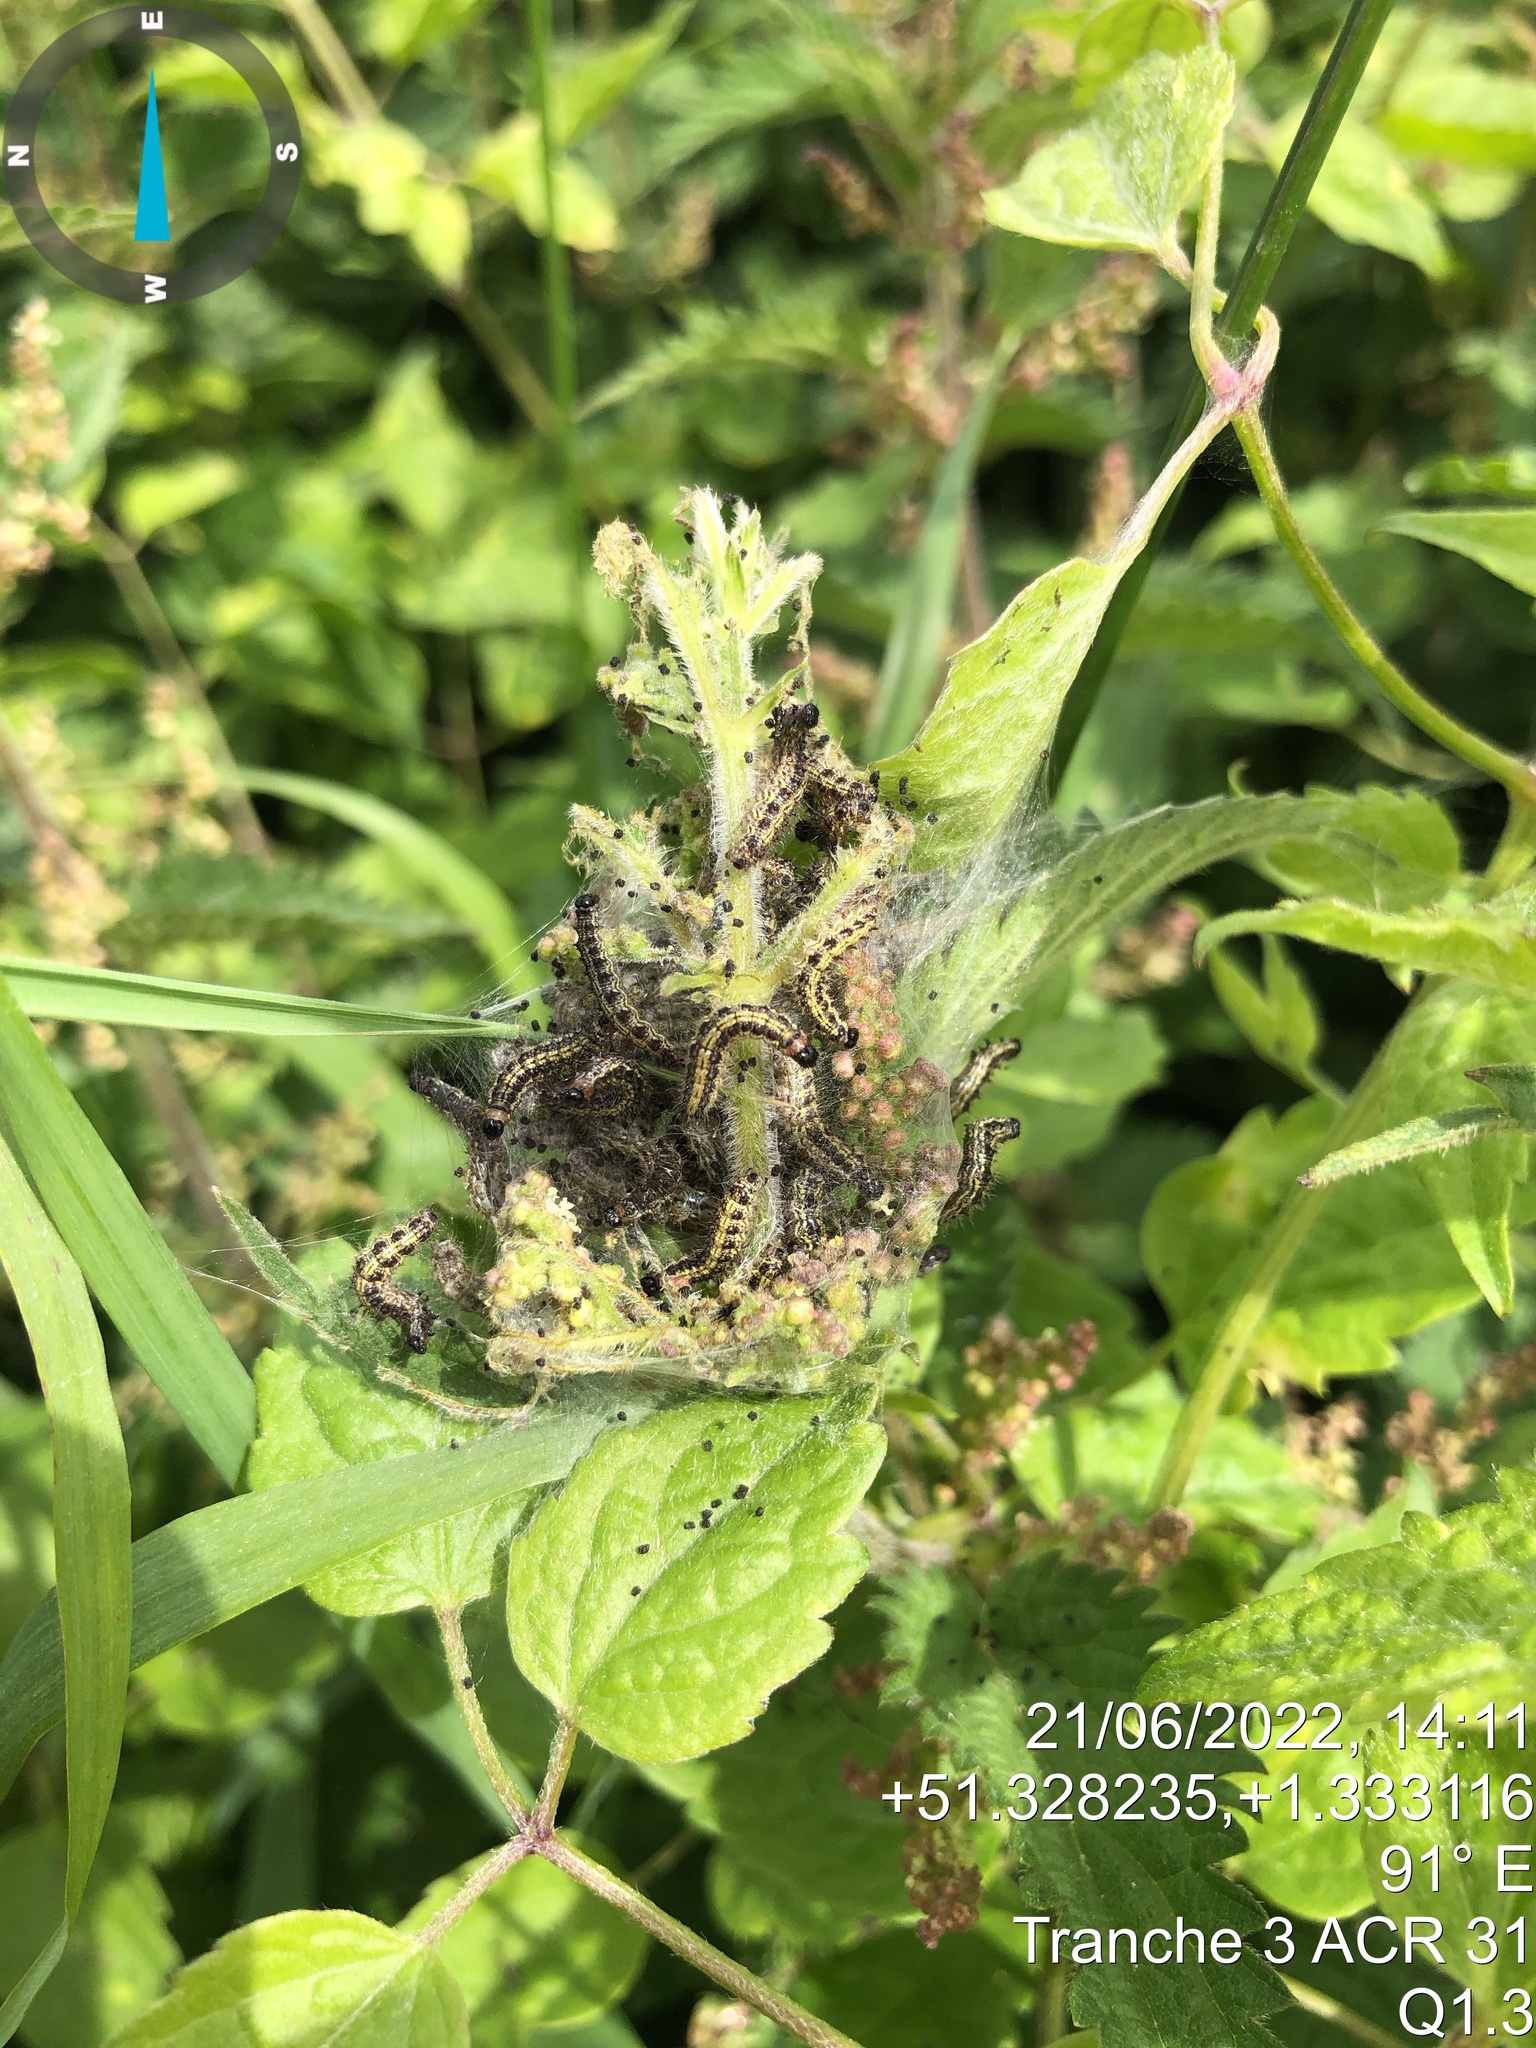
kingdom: Animalia
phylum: Arthropoda
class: Insecta
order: Lepidoptera
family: Nymphalidae
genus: Aglais
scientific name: Aglais urticae
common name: Small tortoiseshell
